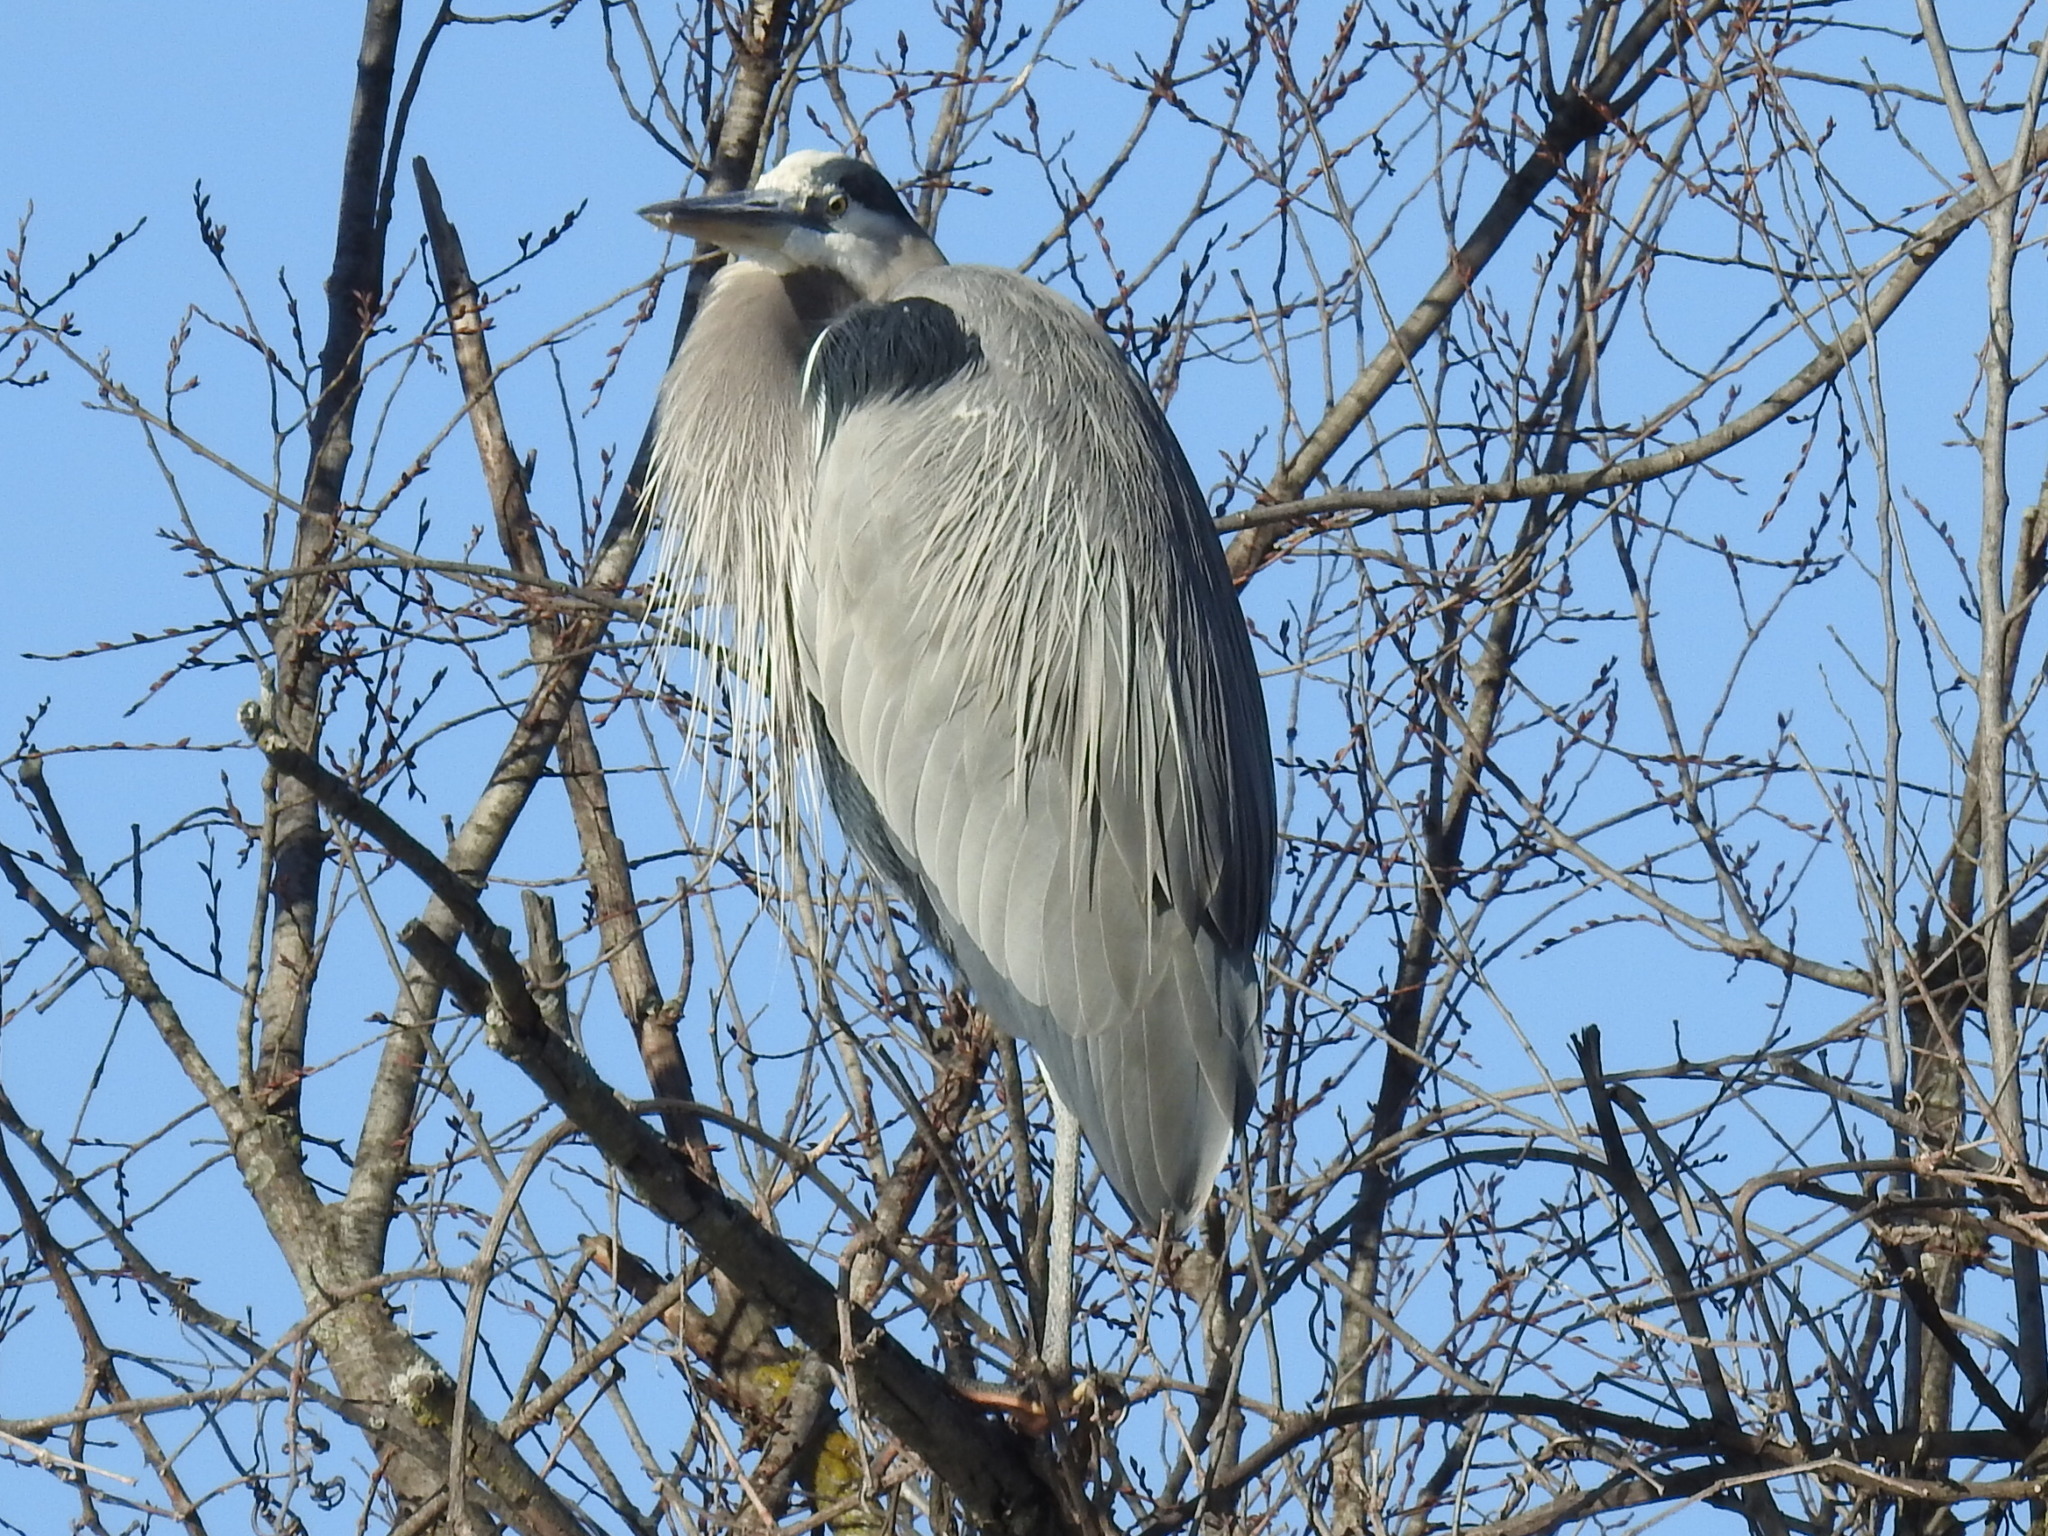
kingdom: Animalia
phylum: Chordata
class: Aves
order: Pelecaniformes
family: Ardeidae
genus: Ardea
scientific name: Ardea herodias
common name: Great blue heron
